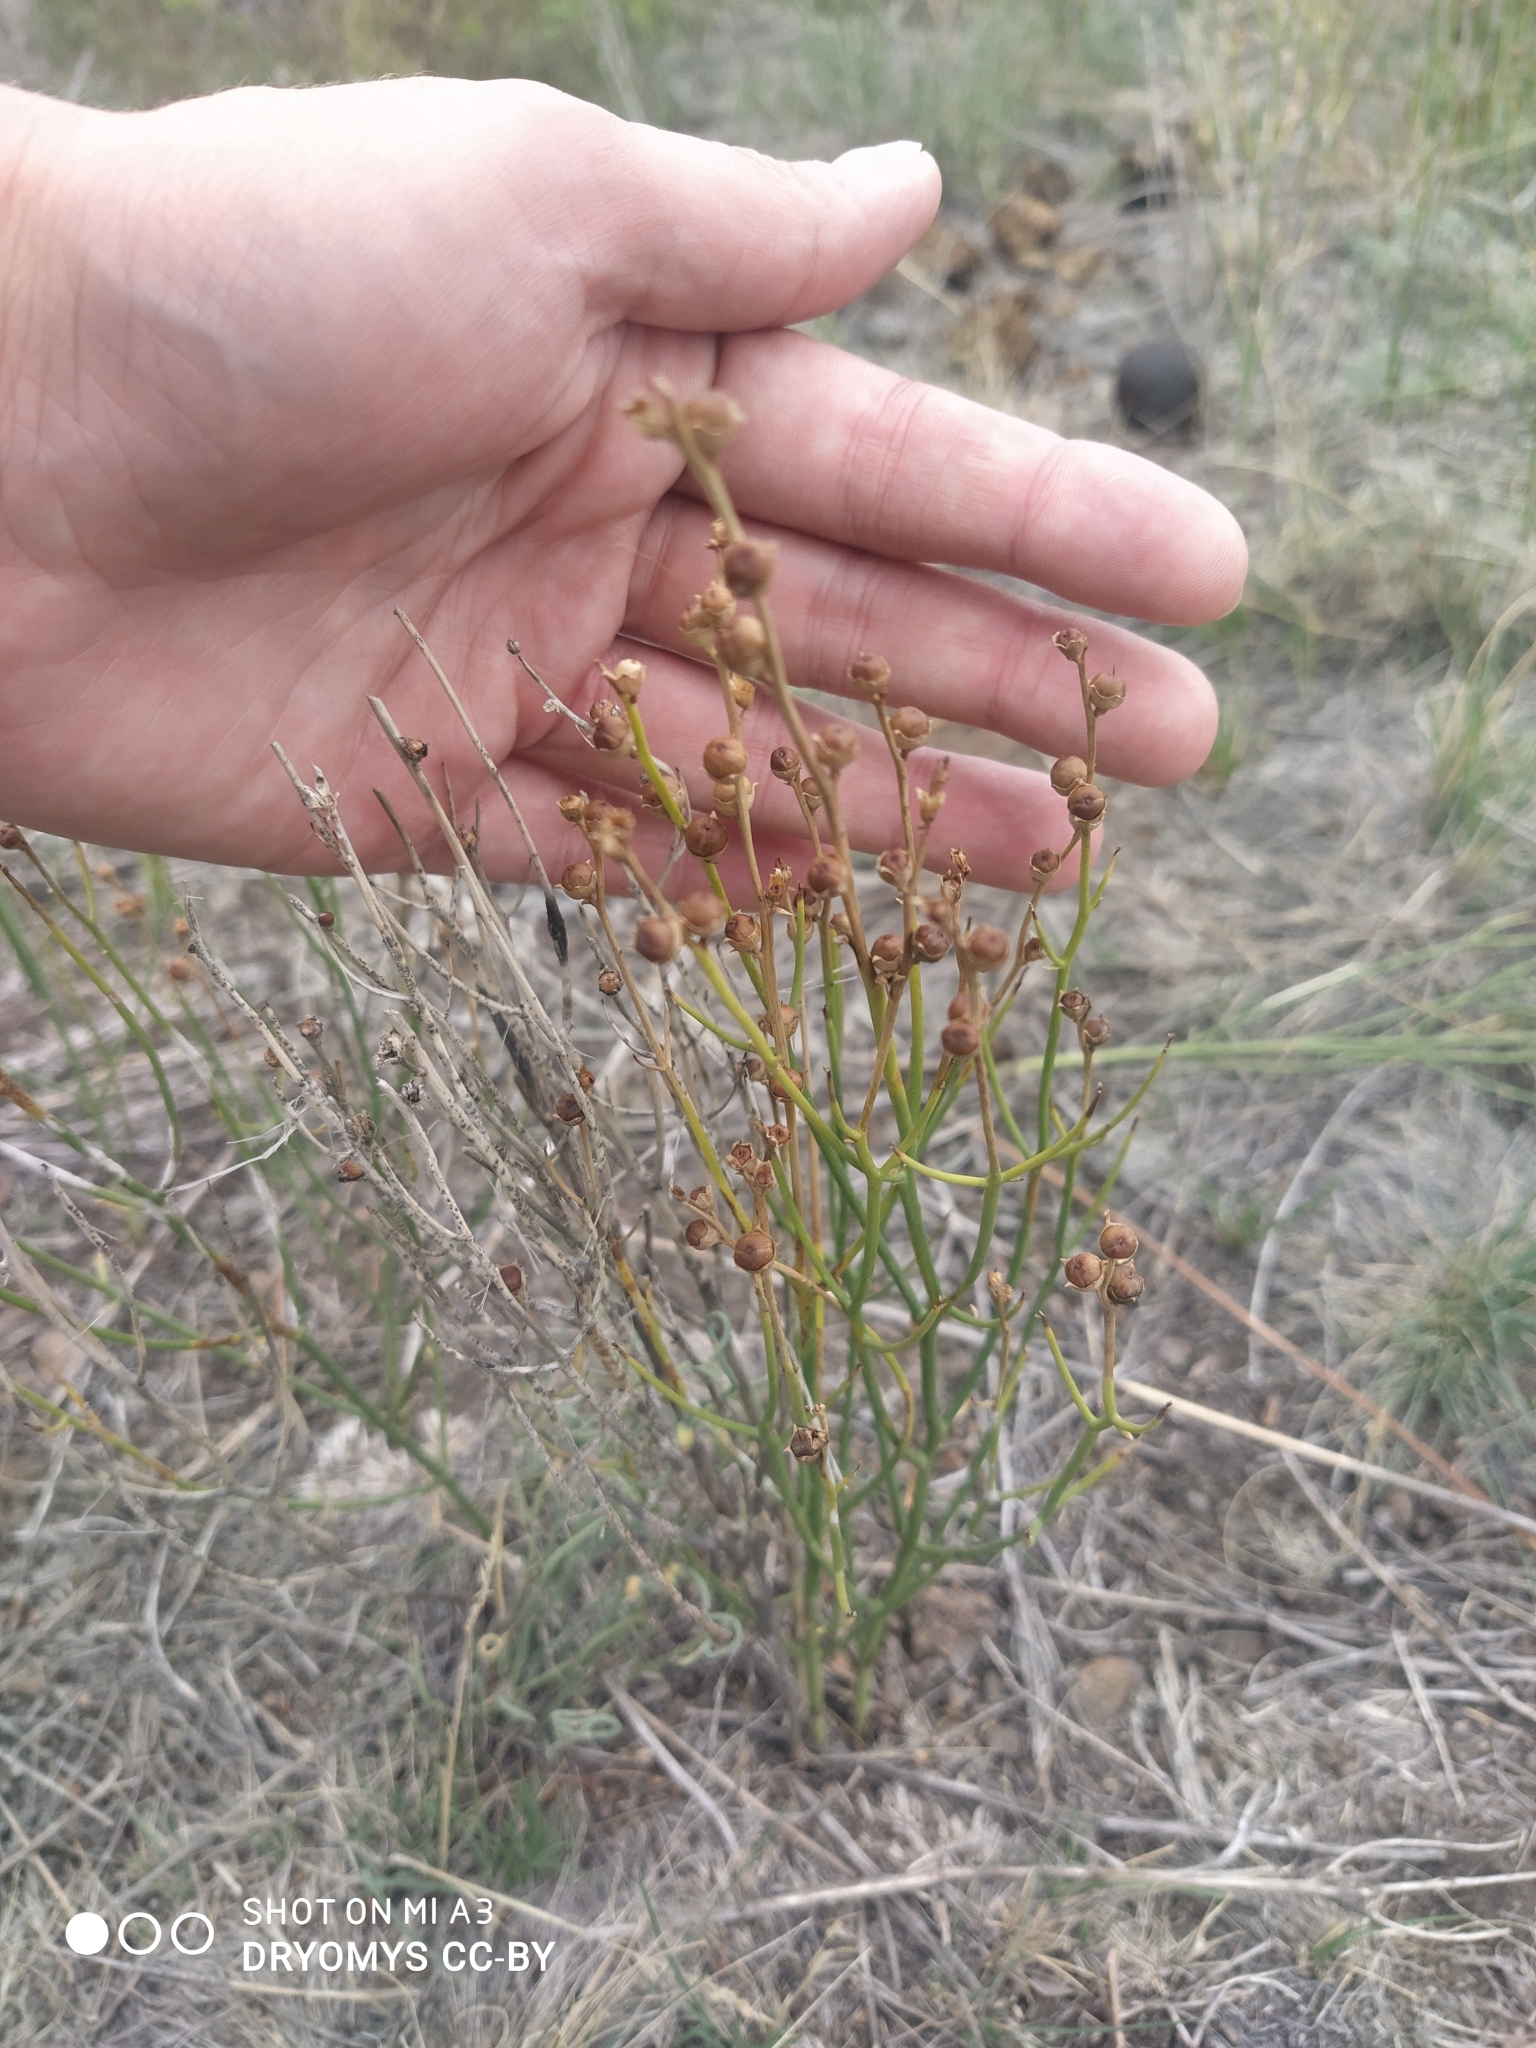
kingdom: Plantae
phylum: Tracheophyta
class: Magnoliopsida
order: Lamiales
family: Mazaceae
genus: Dodartia
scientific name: Dodartia orientalis
